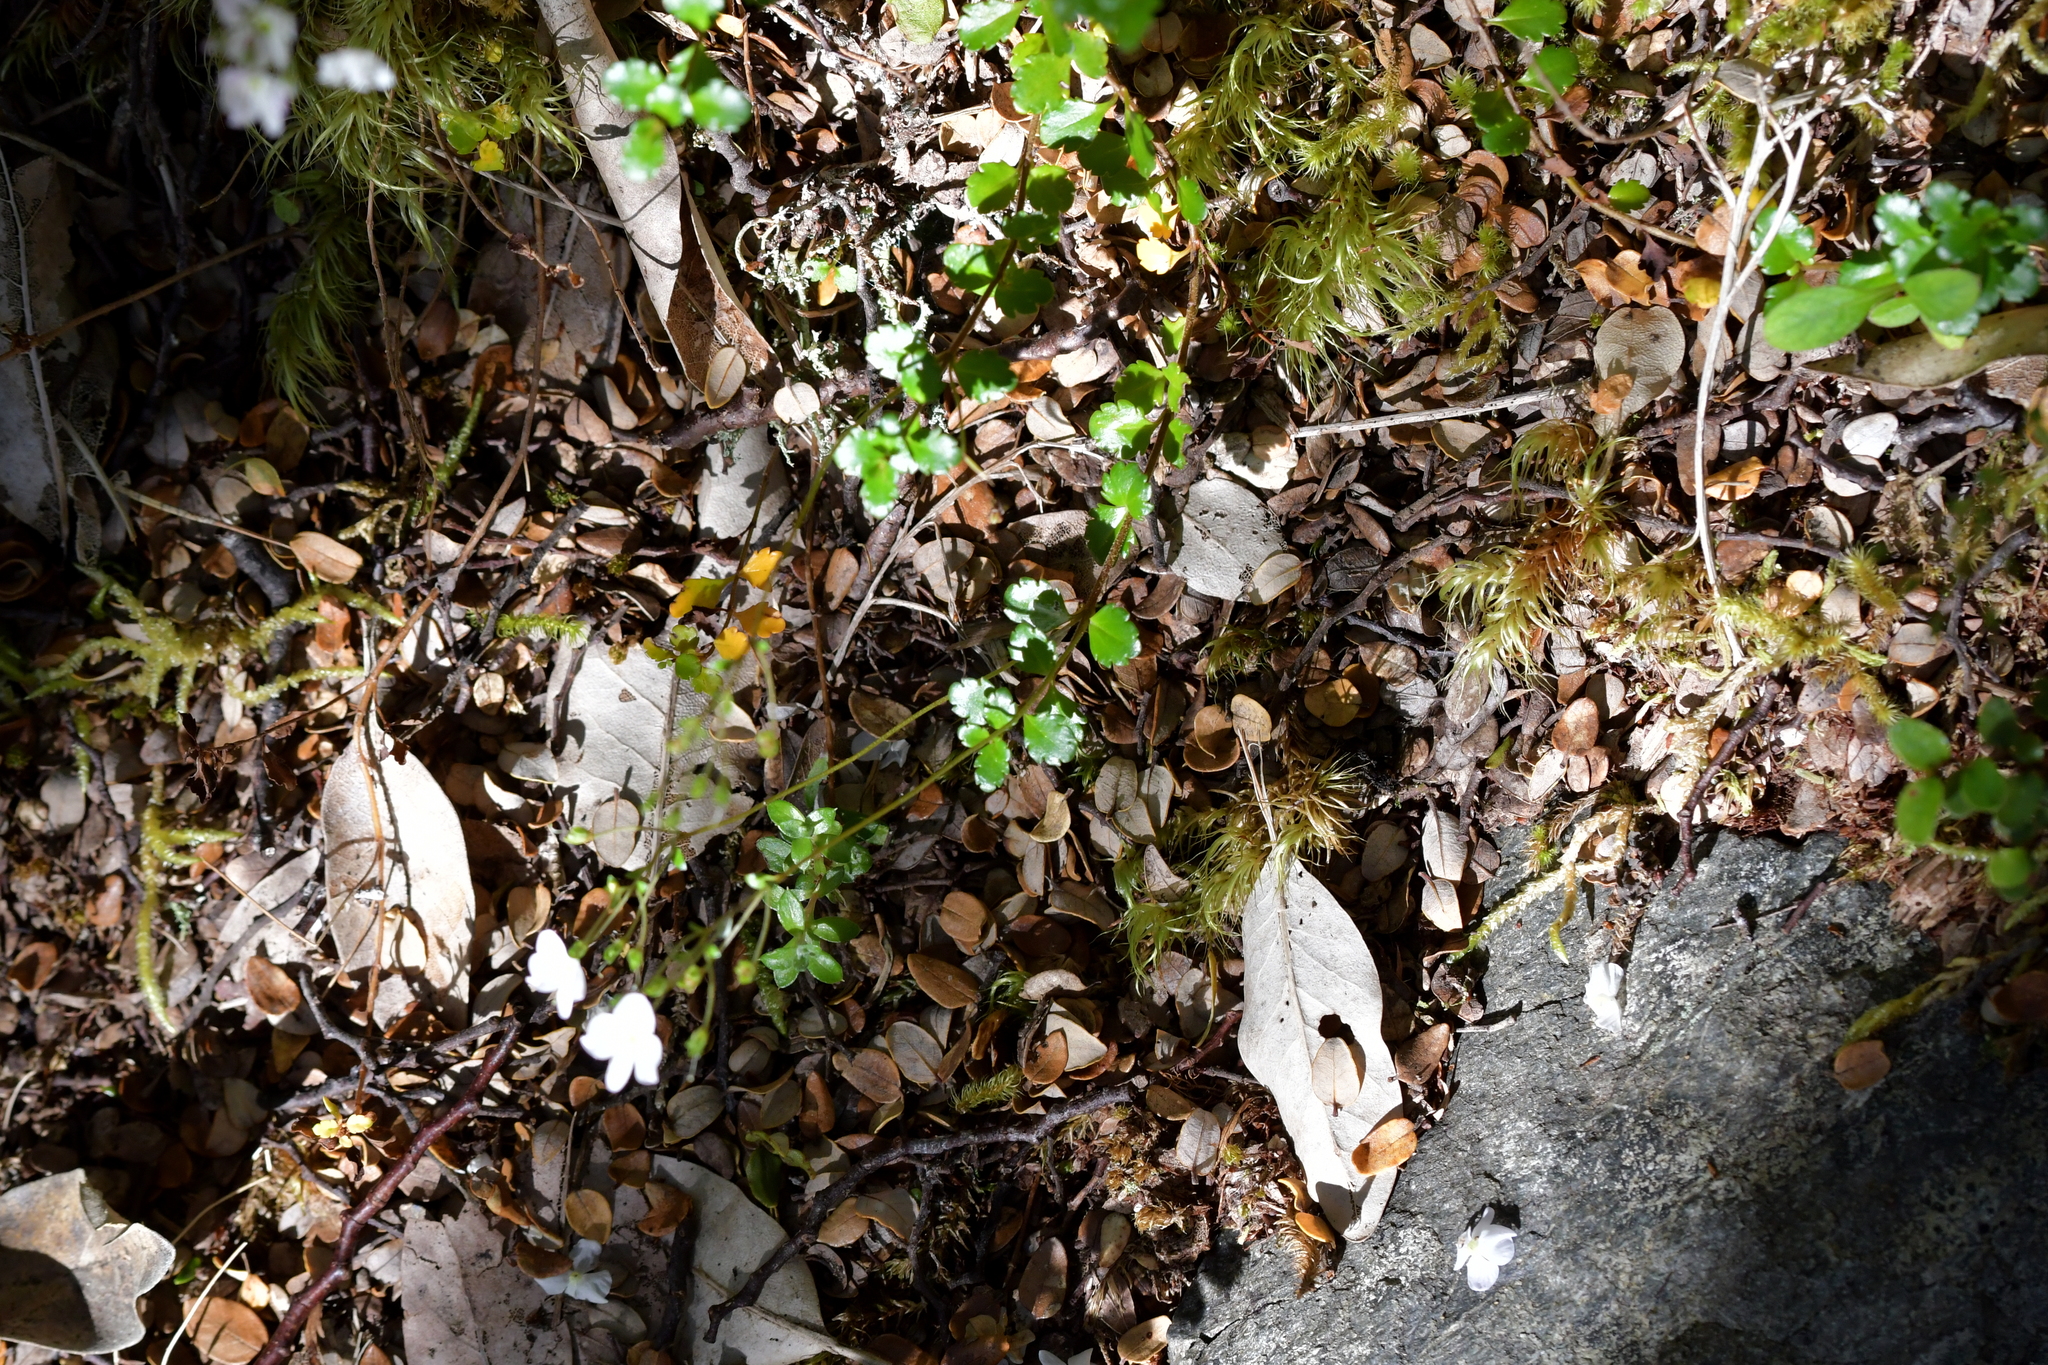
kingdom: Plantae
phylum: Tracheophyta
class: Magnoliopsida
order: Lamiales
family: Plantaginaceae
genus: Veronica
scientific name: Veronica lyallii
